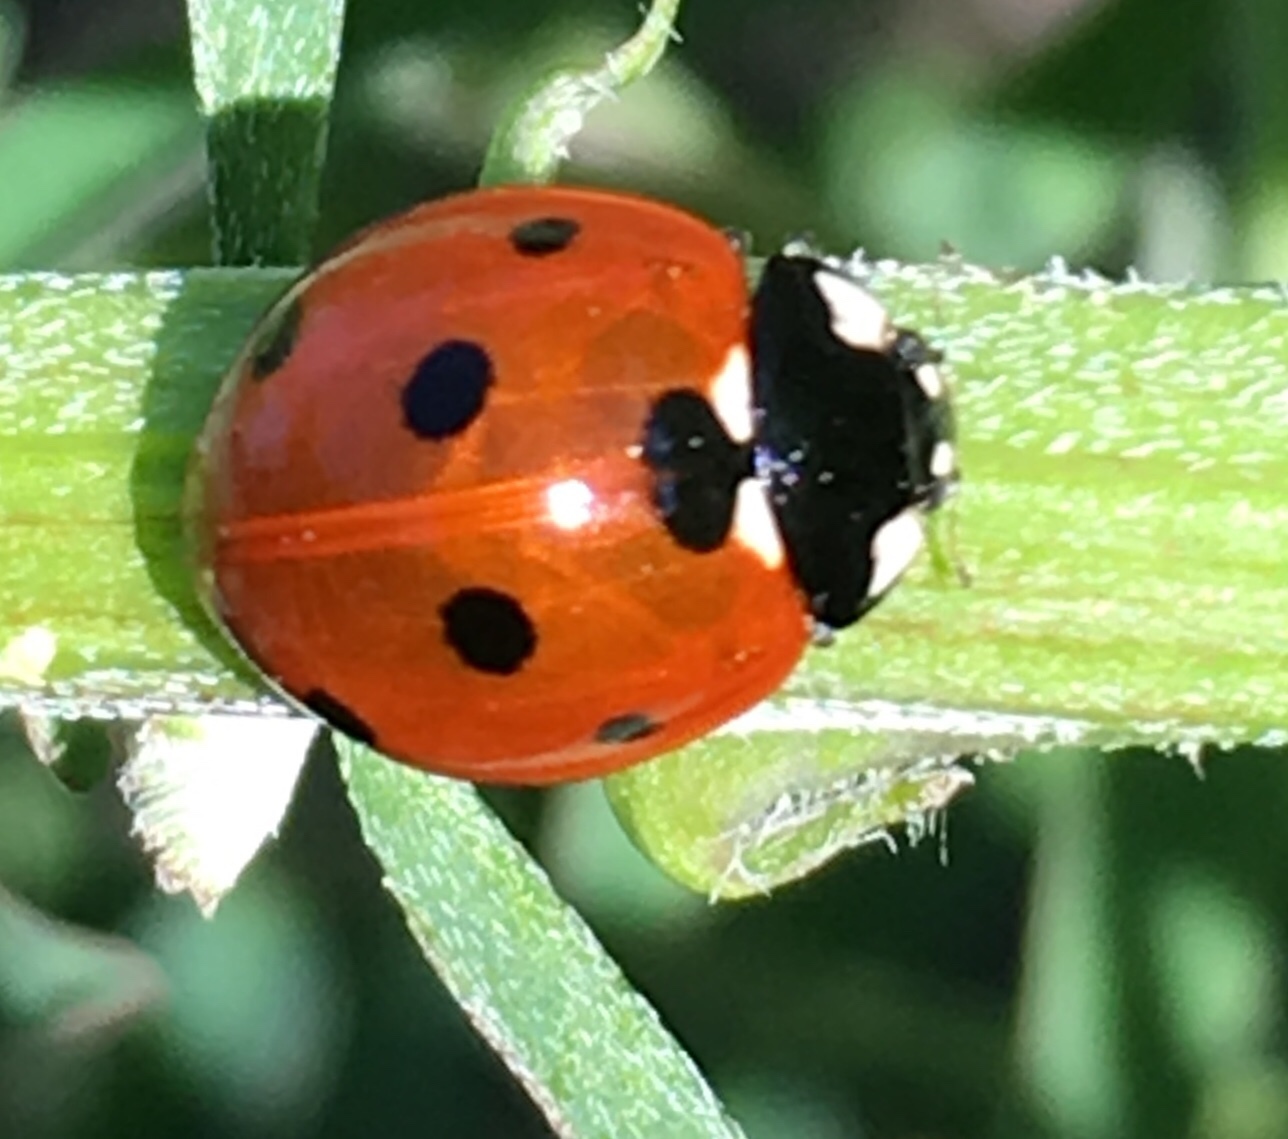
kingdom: Animalia
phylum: Arthropoda
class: Insecta
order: Coleoptera
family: Coccinellidae
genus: Coccinella
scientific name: Coccinella septempunctata
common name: Sevenspotted lady beetle
